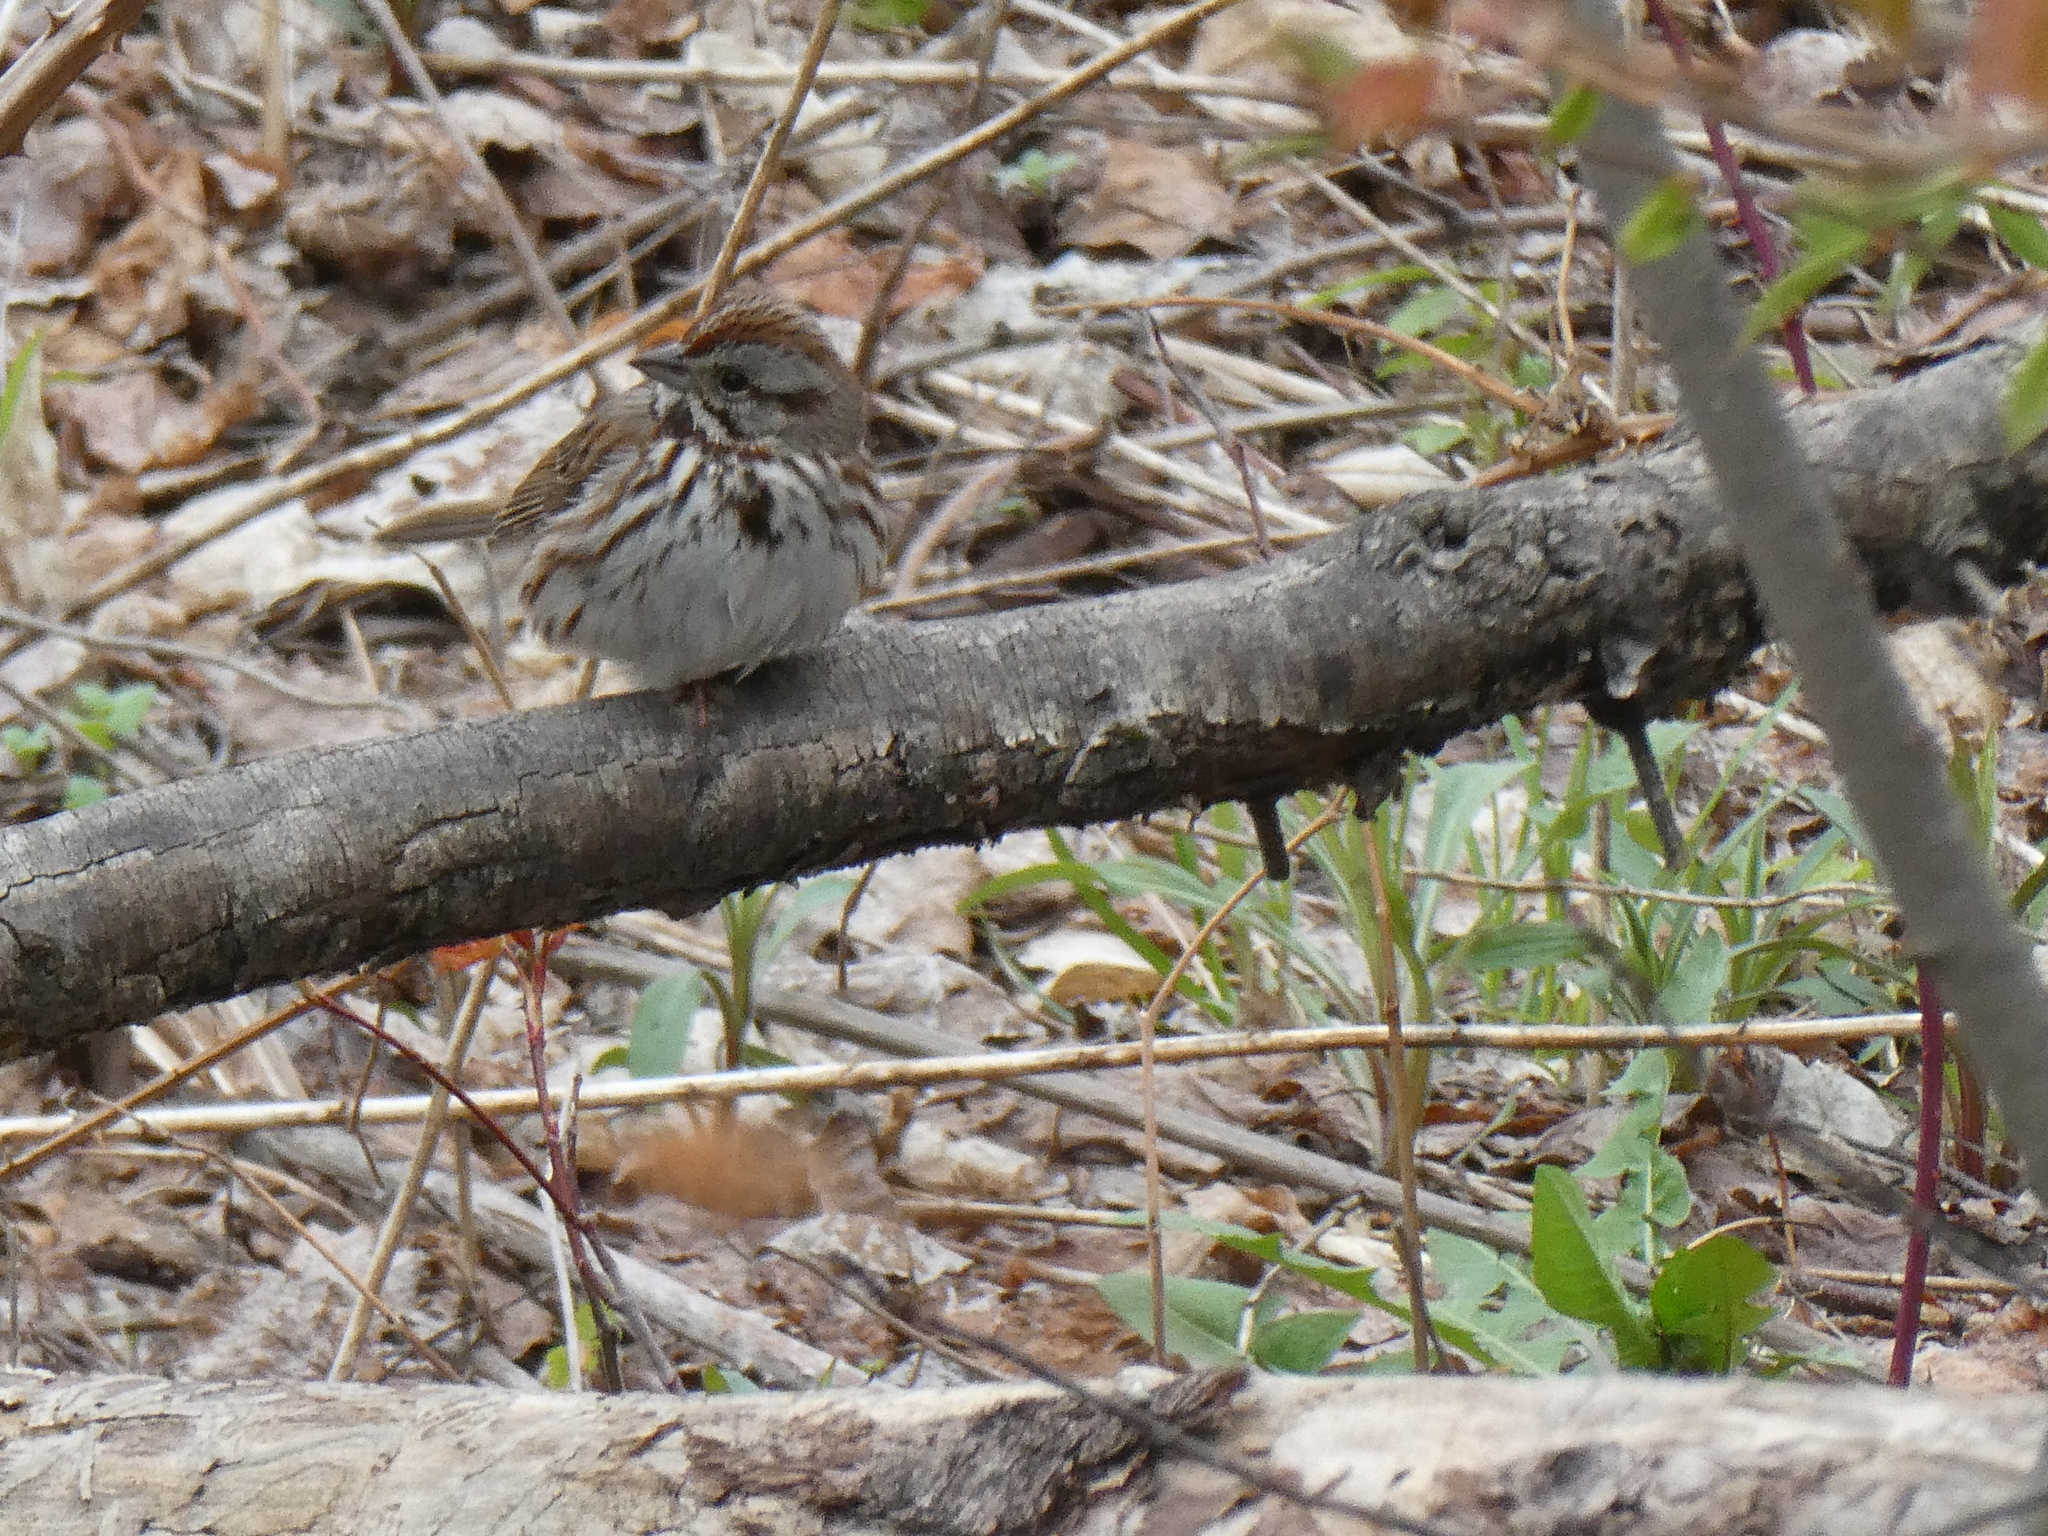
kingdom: Animalia
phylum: Chordata
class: Aves
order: Passeriformes
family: Passerellidae
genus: Melospiza
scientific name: Melospiza melodia
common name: Song sparrow
